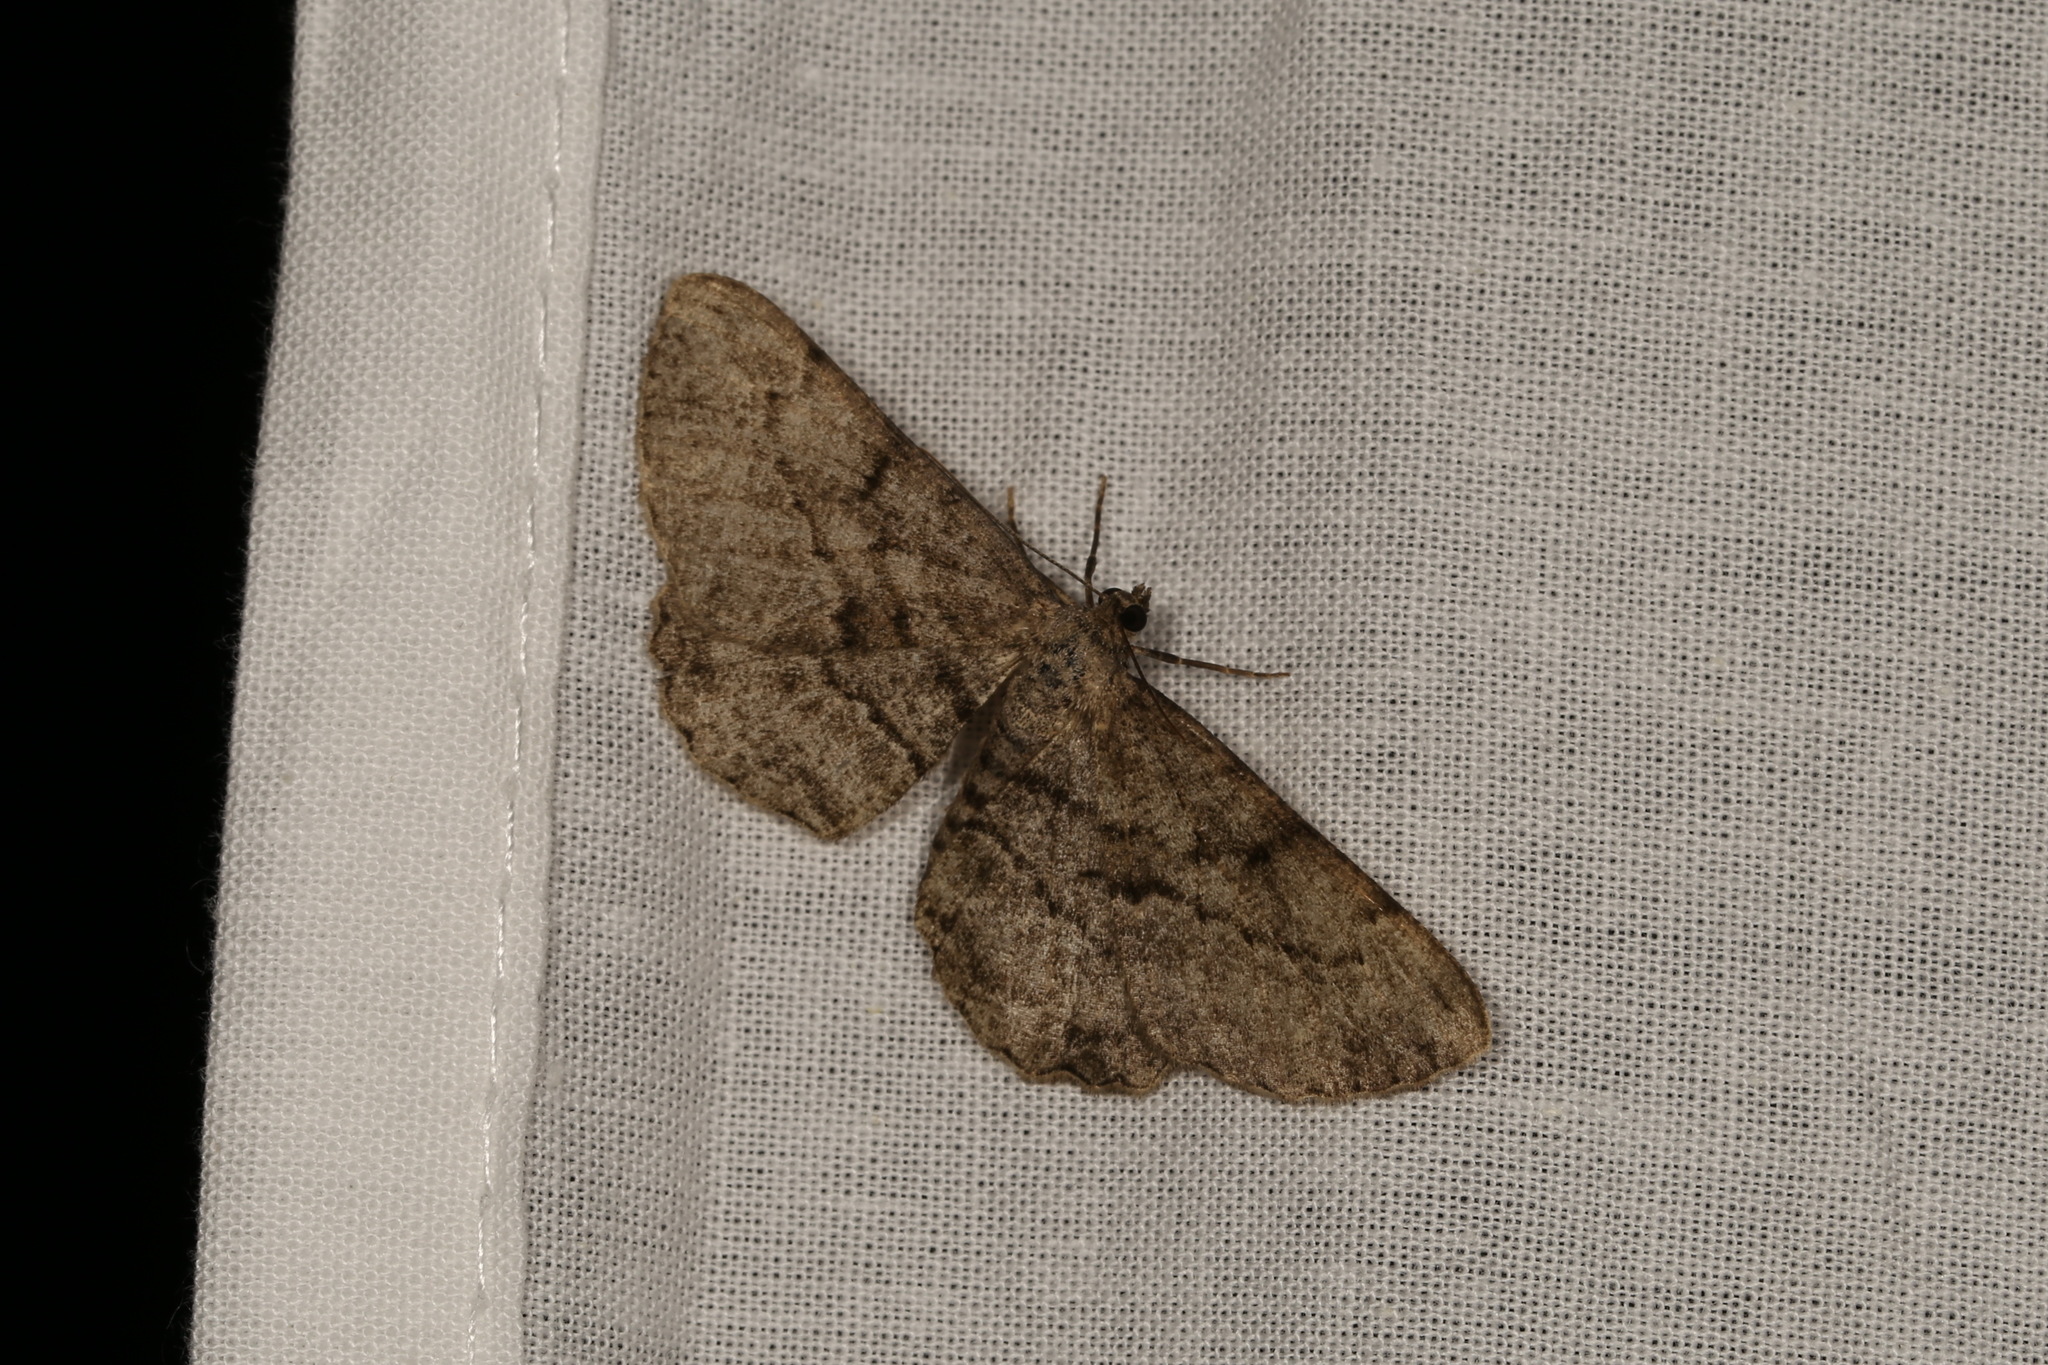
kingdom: Animalia
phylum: Arthropoda
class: Insecta
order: Lepidoptera
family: Geometridae
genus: Peribatodes
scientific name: Peribatodes rhomboidaria
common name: Willow beauty
